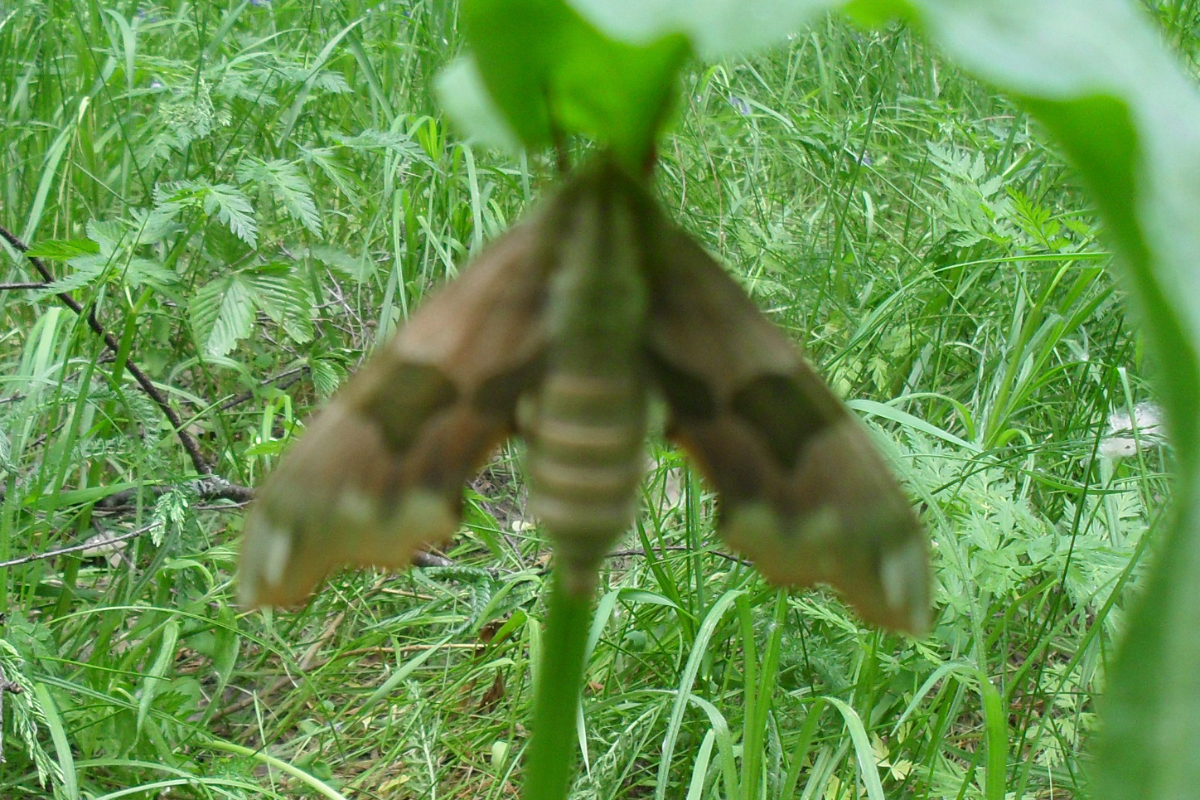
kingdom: Animalia
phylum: Arthropoda
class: Insecta
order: Lepidoptera
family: Sphingidae
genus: Mimas
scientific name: Mimas tiliae
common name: Lime hawk-moth
